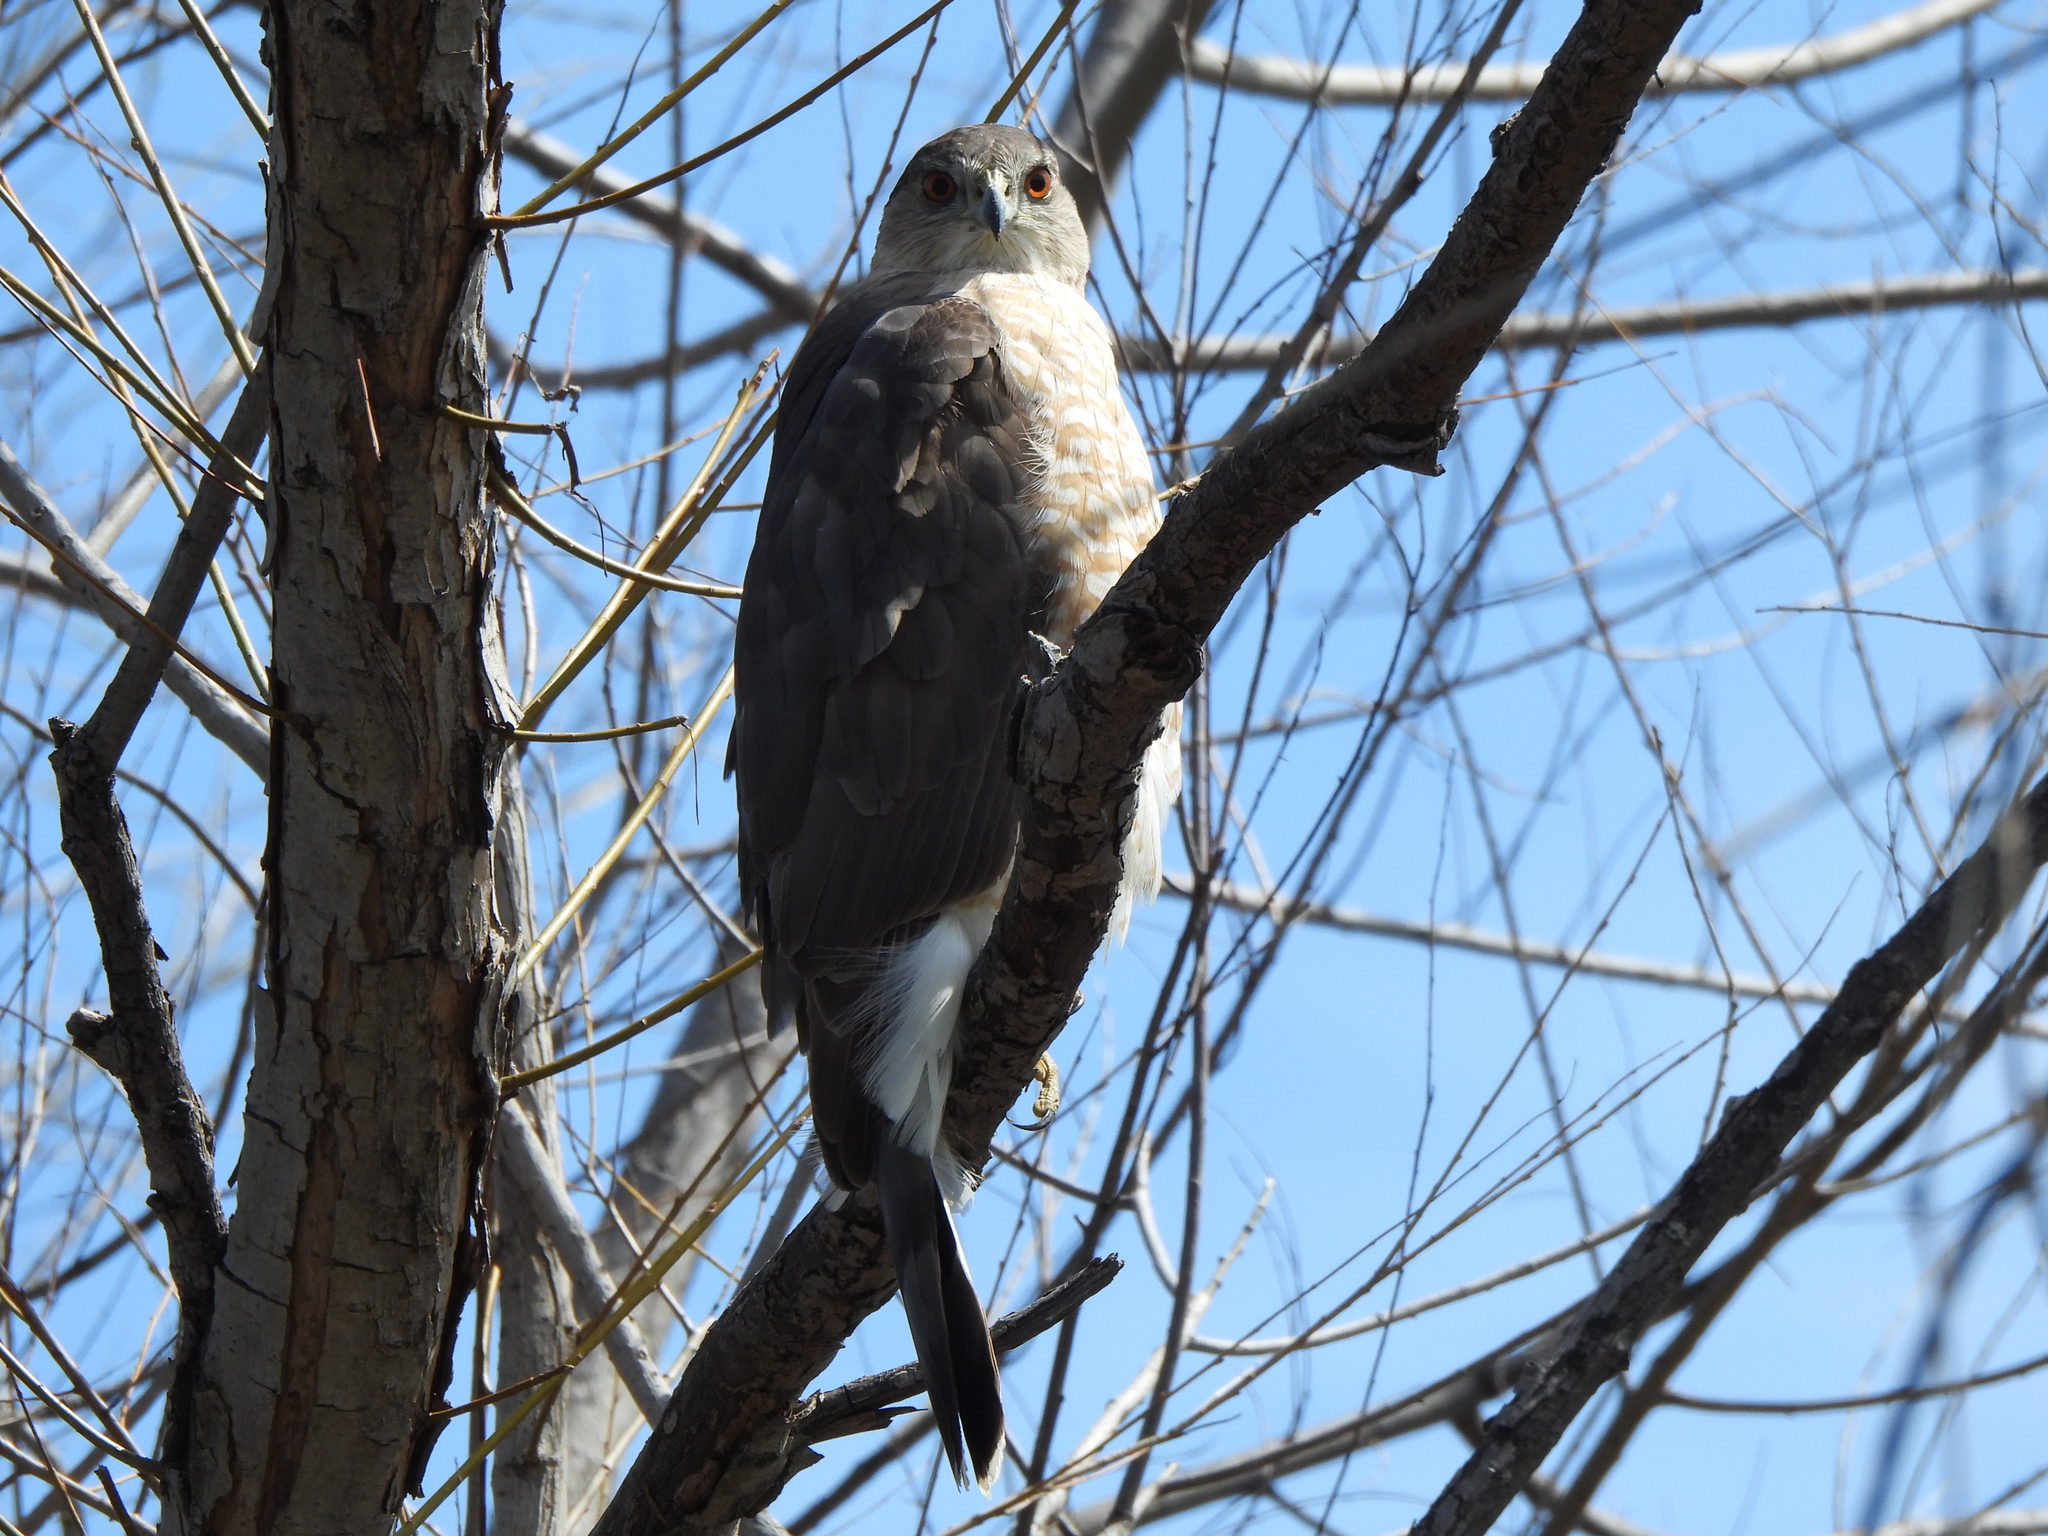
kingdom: Animalia
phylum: Chordata
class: Aves
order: Accipitriformes
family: Accipitridae
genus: Accipiter
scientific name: Accipiter cooperii
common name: Cooper's hawk
